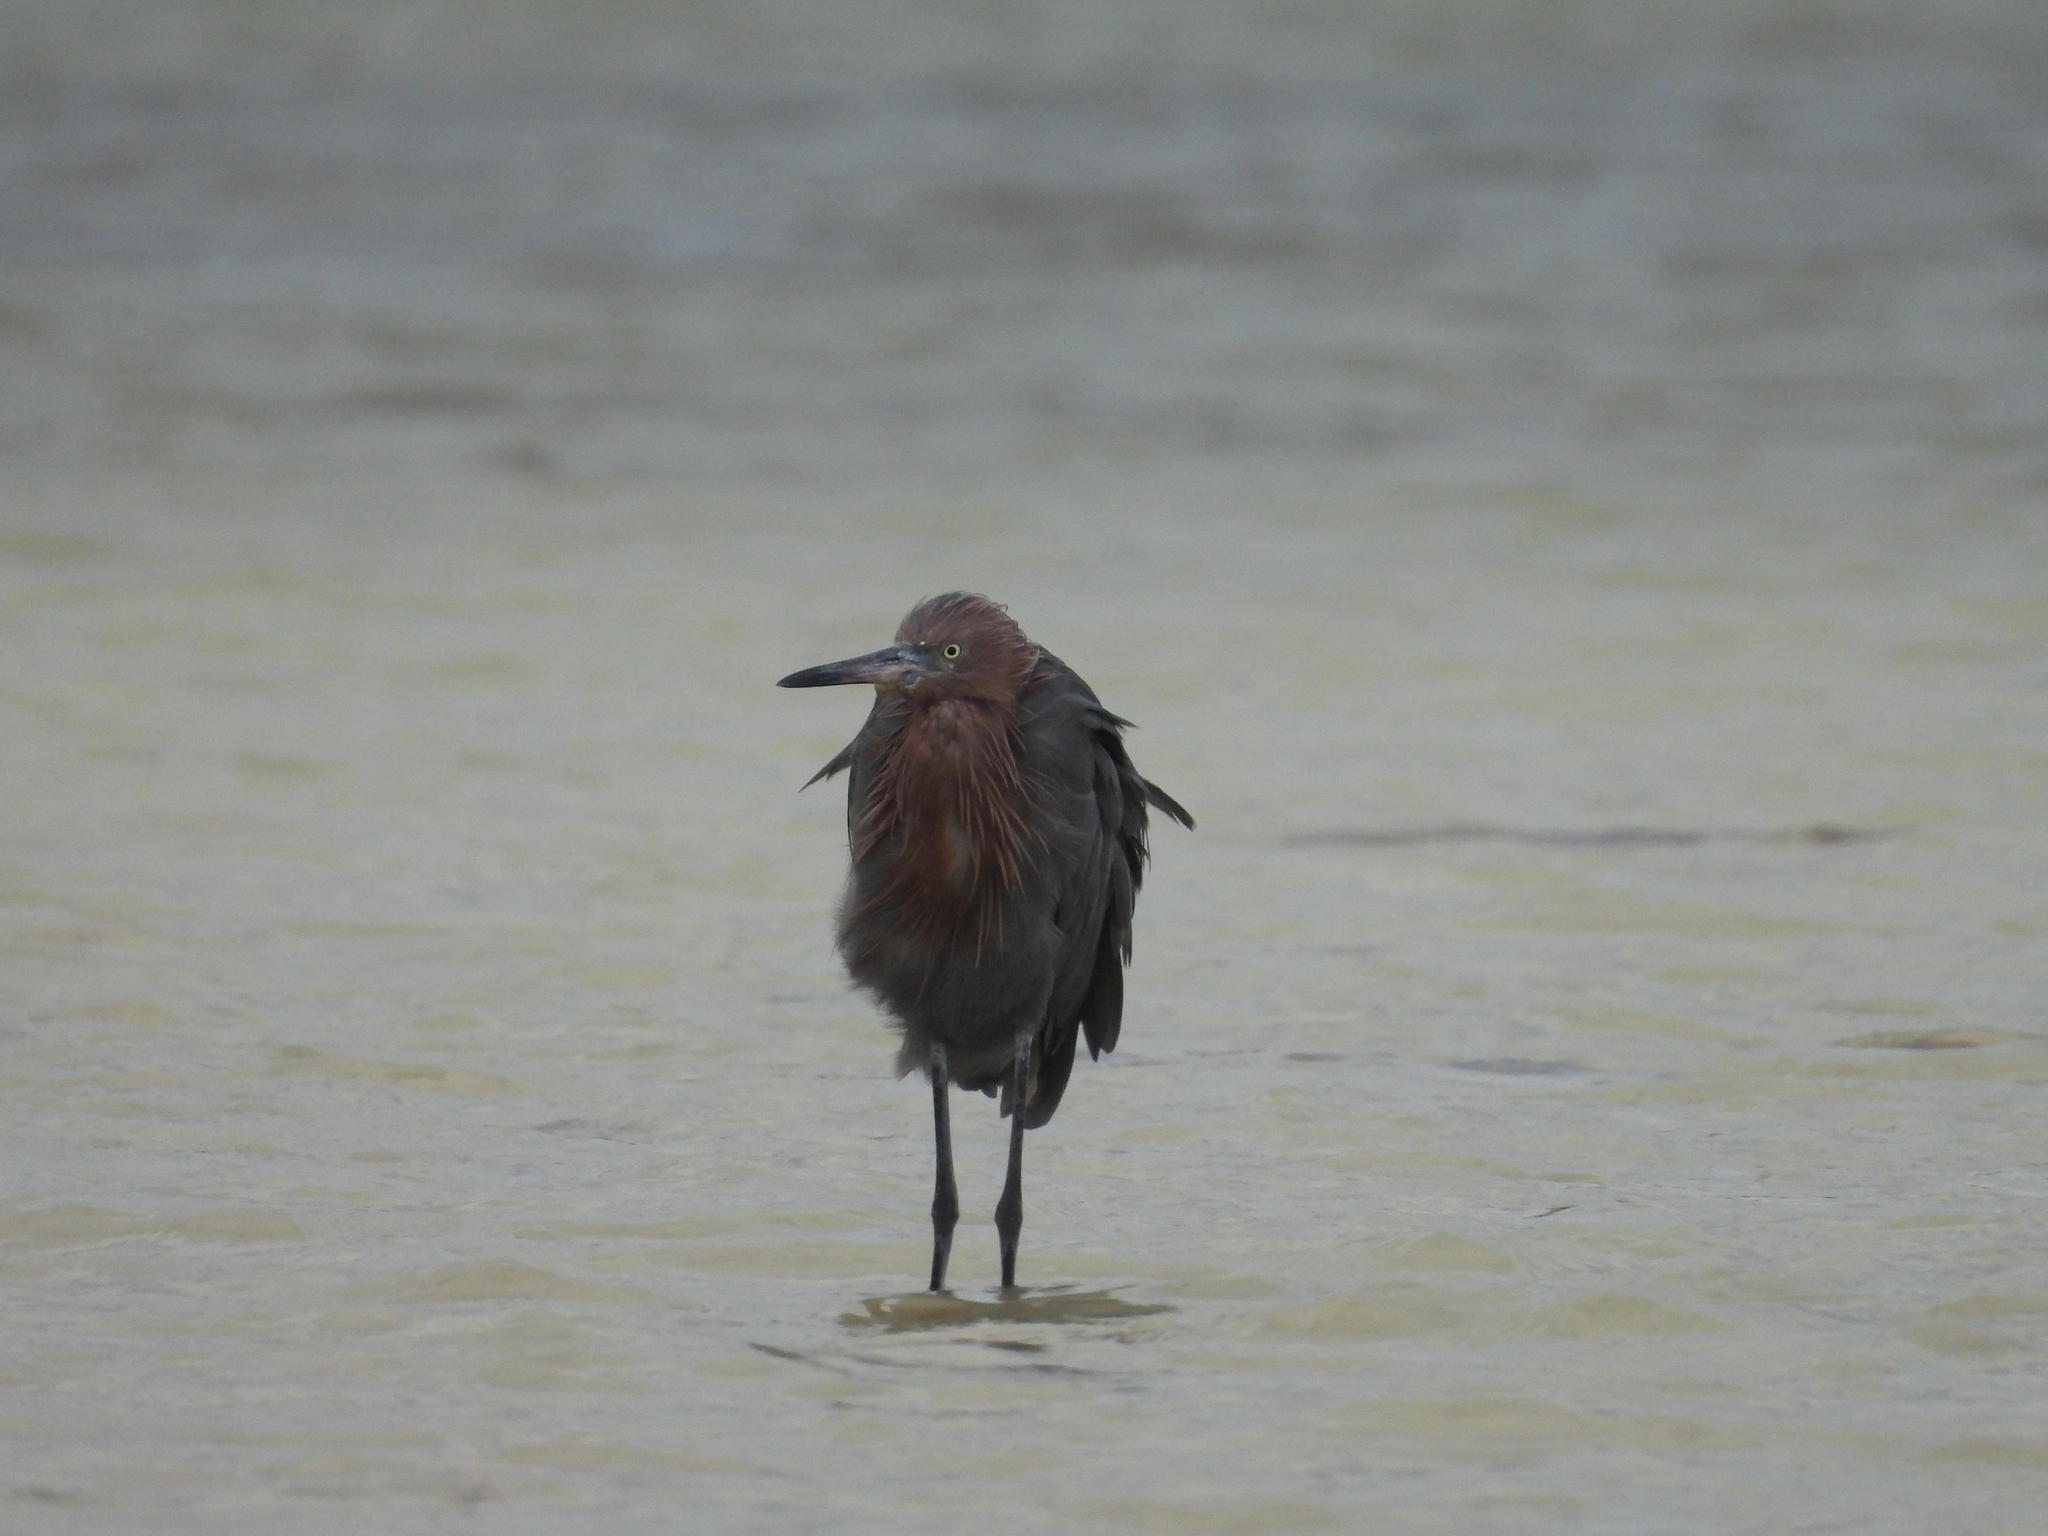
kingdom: Animalia
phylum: Chordata
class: Aves
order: Pelecaniformes
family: Ardeidae
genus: Egretta
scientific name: Egretta rufescens
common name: Reddish egret
